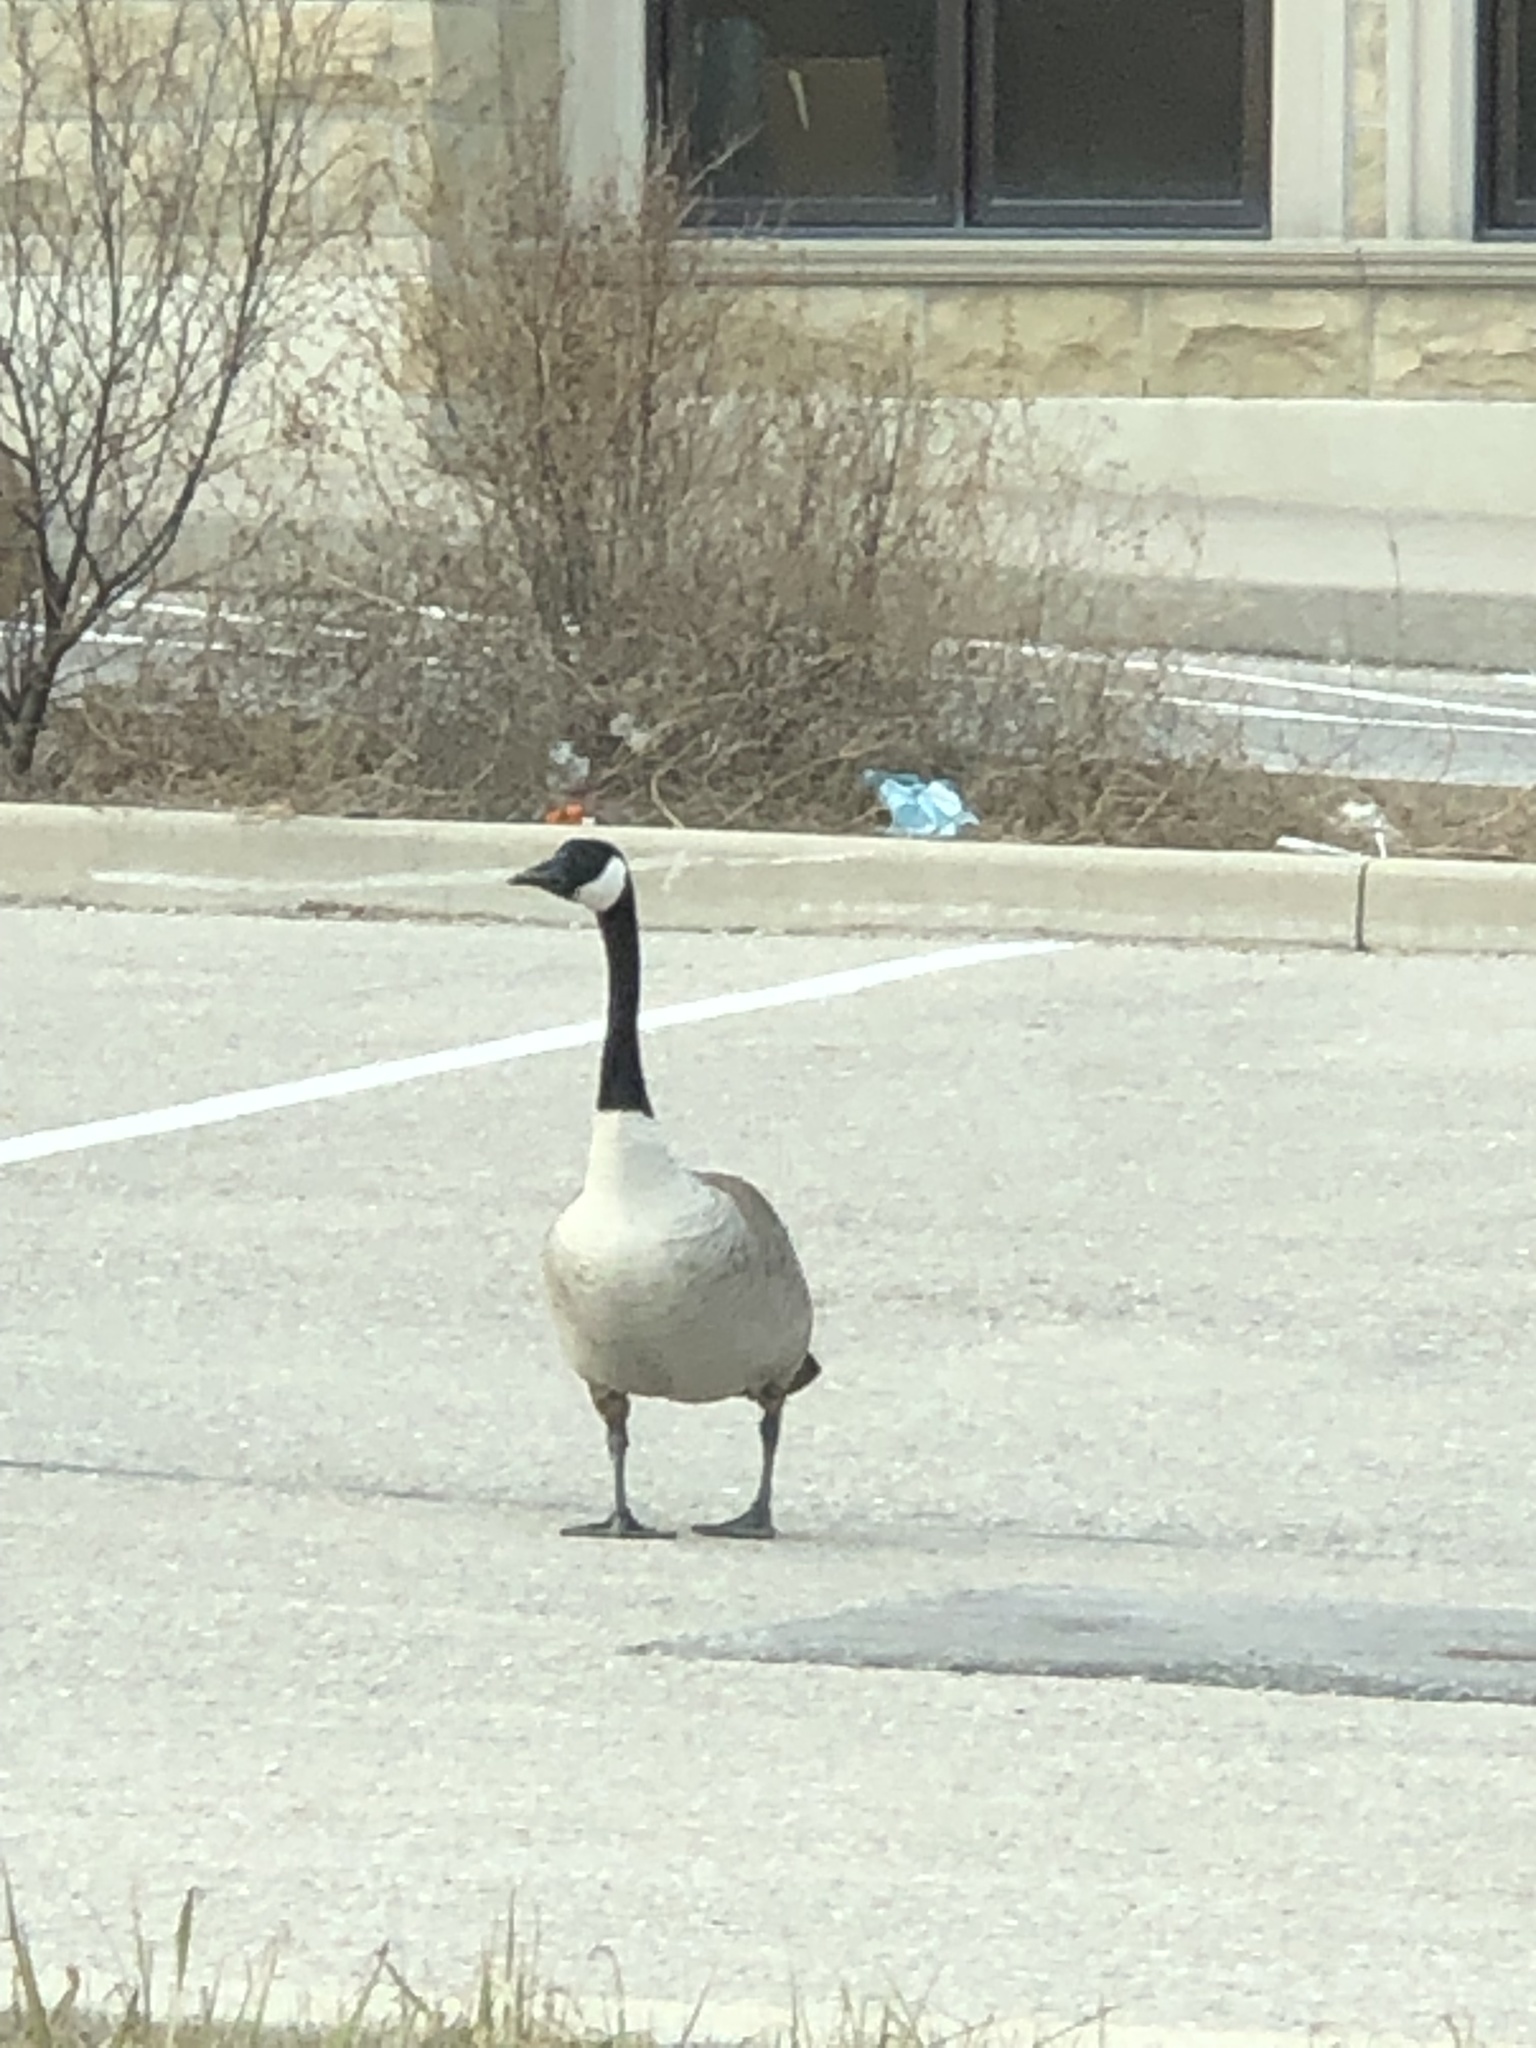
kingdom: Animalia
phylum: Chordata
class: Aves
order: Anseriformes
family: Anatidae
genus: Branta
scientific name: Branta canadensis
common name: Canada goose
